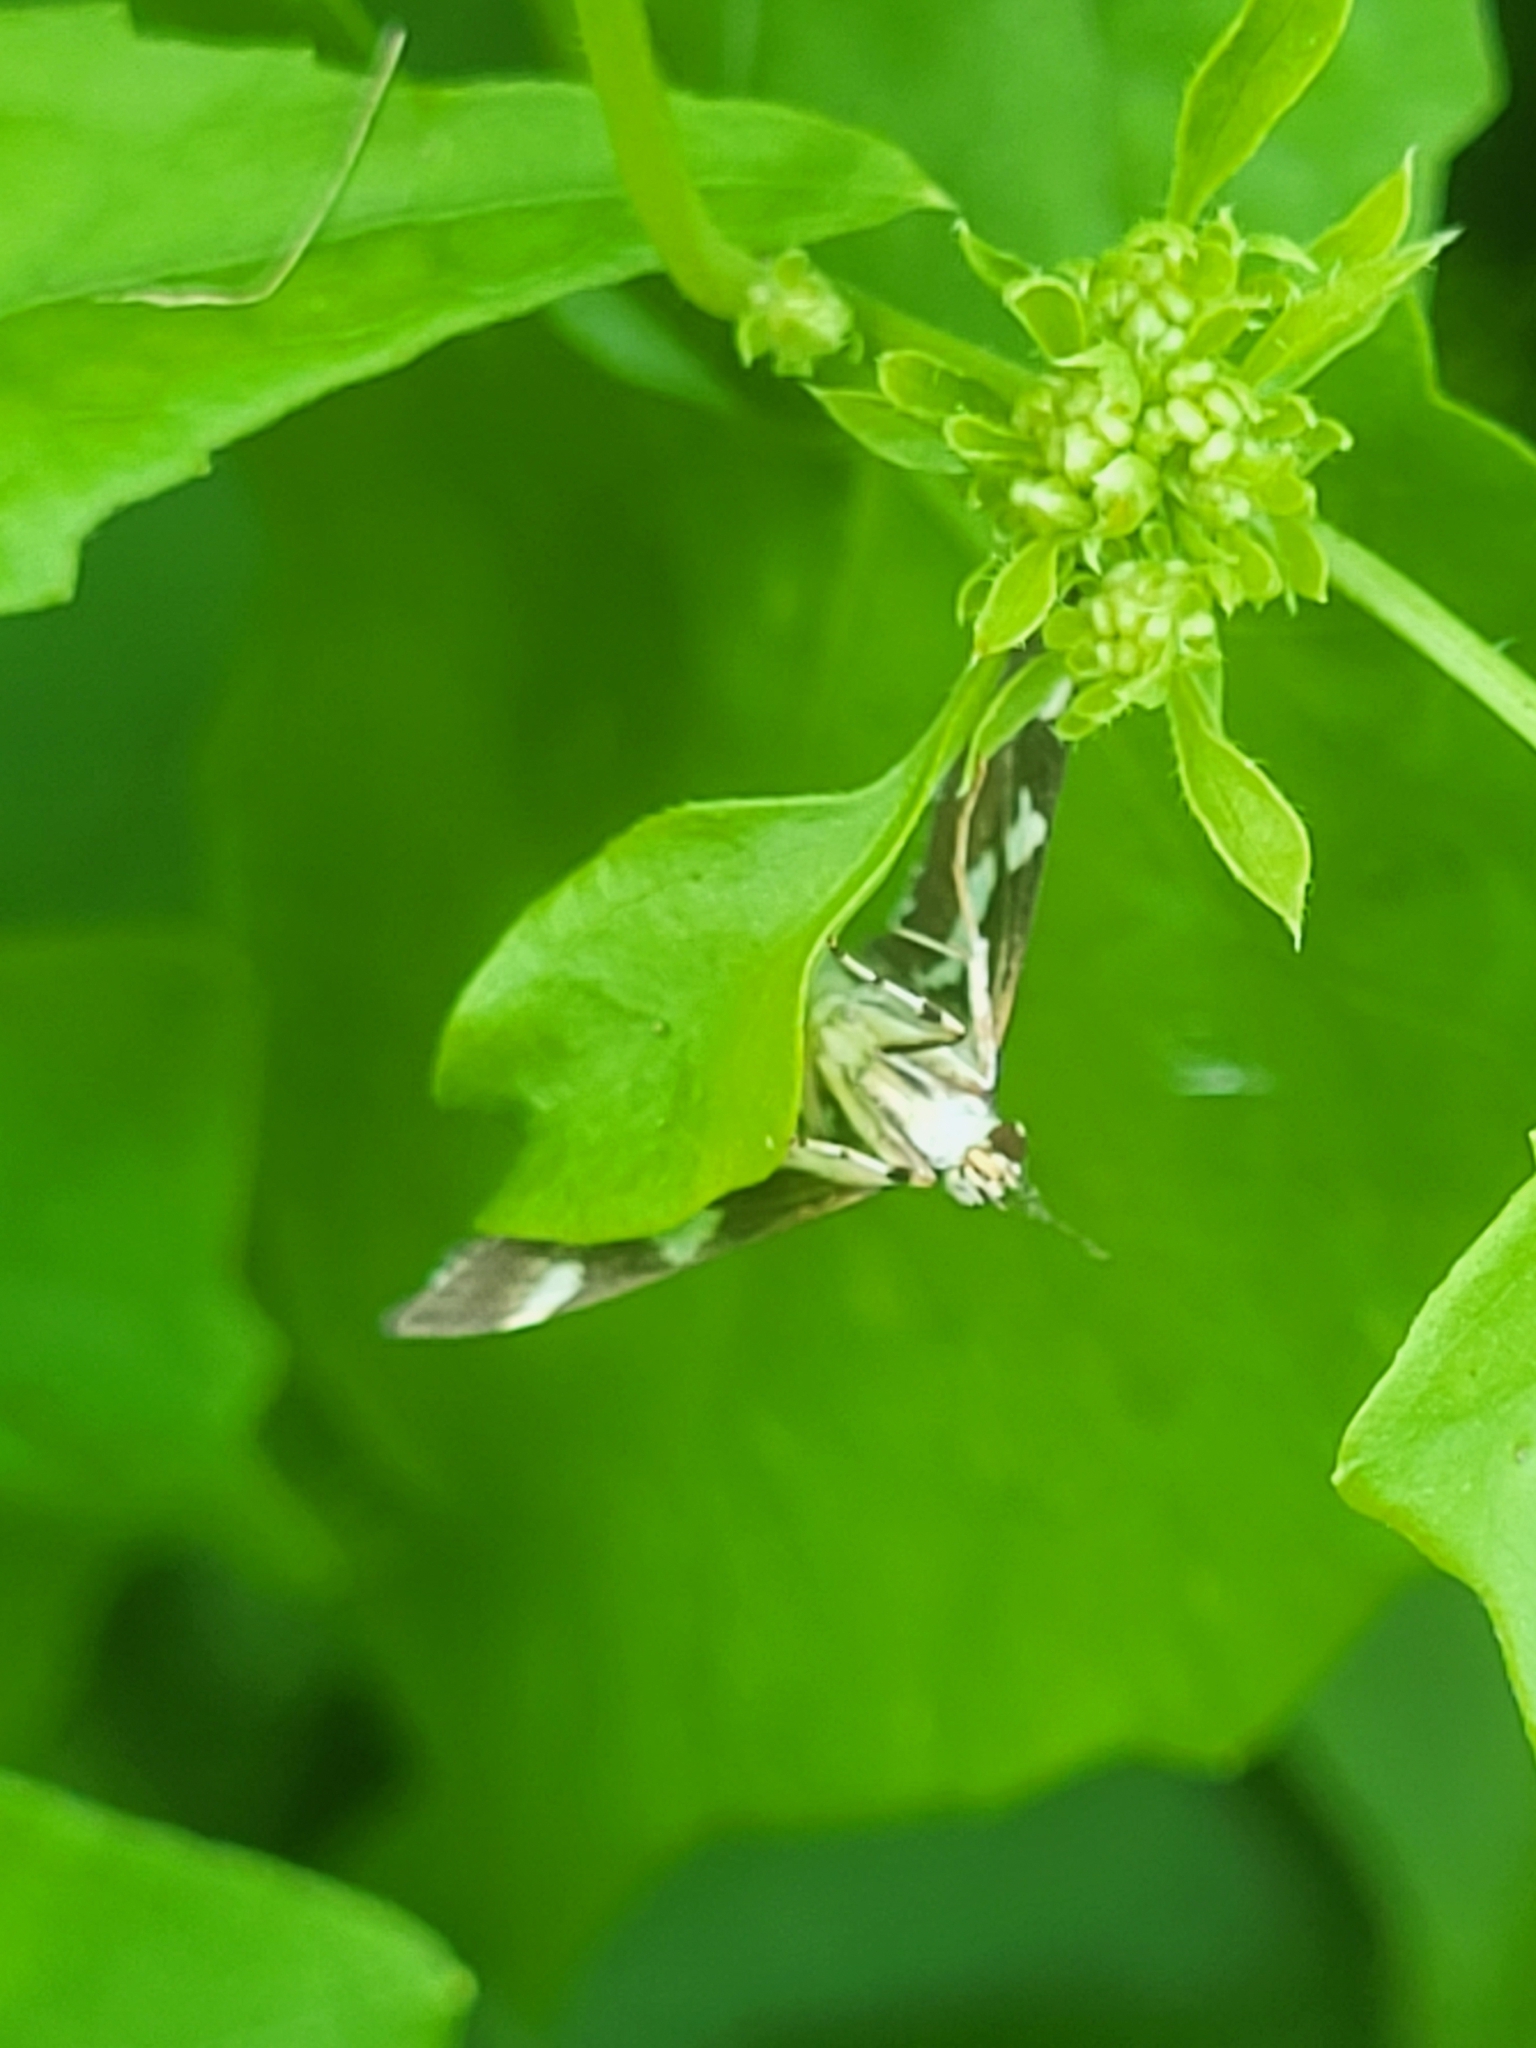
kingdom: Animalia
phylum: Arthropoda
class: Insecta
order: Lepidoptera
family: Crambidae
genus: Spoladea
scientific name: Spoladea recurvalis
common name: Beet webworm moth
